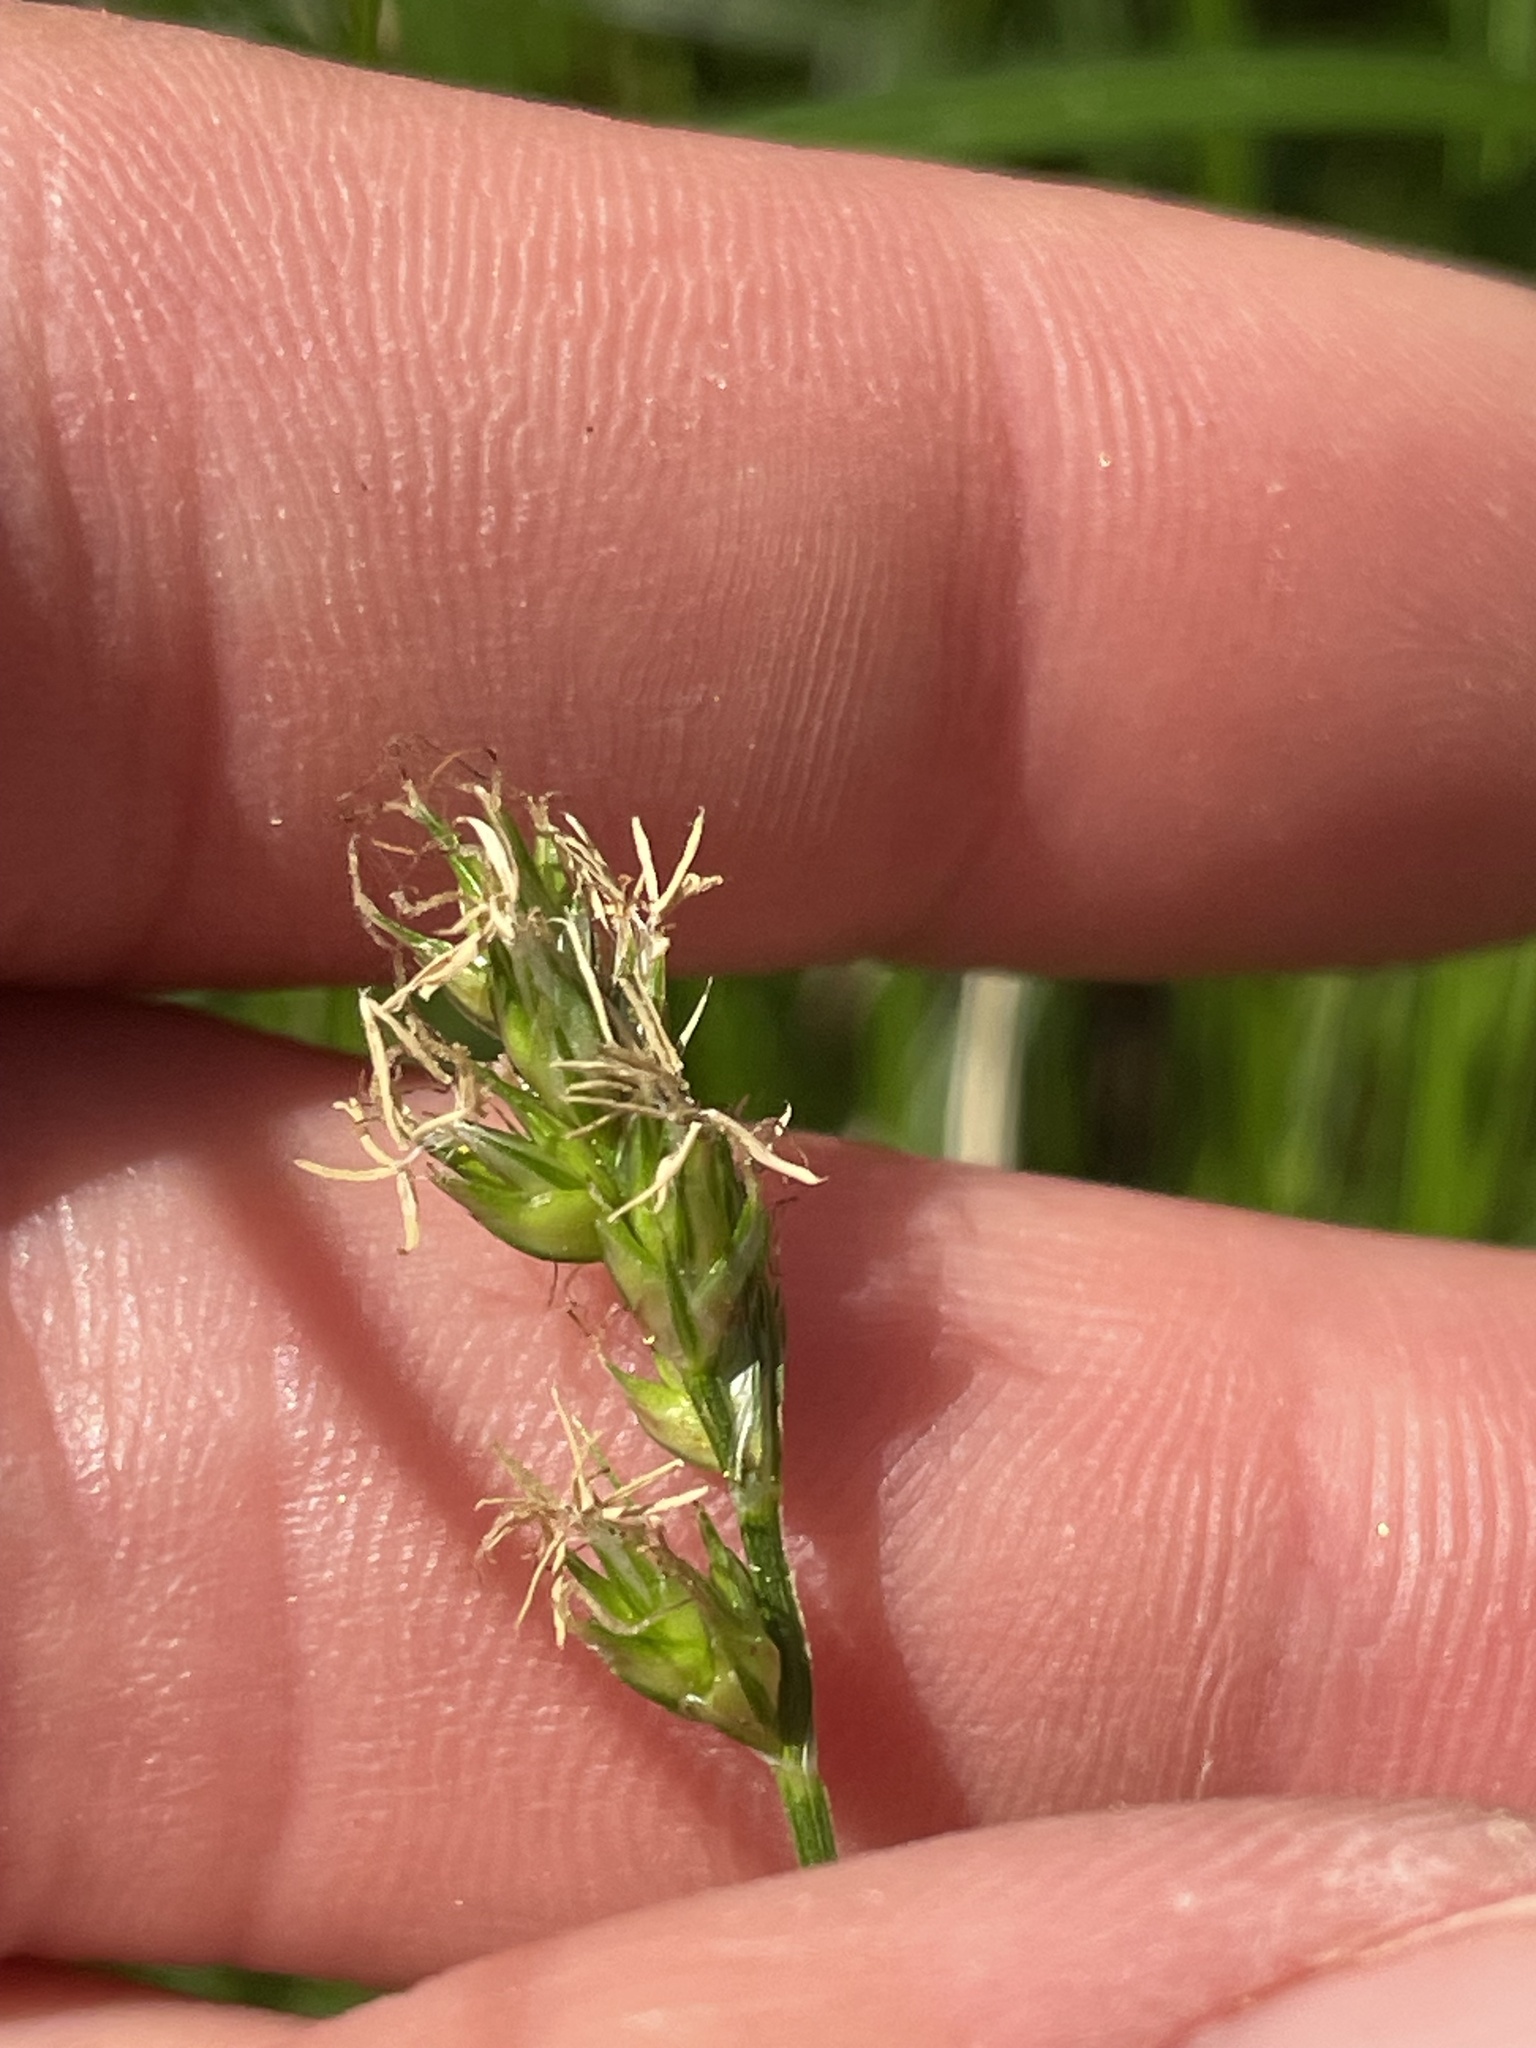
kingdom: Plantae
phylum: Tracheophyta
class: Liliopsida
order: Poales
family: Cyperaceae
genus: Carex
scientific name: Carex spicata
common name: Spiked sedge
